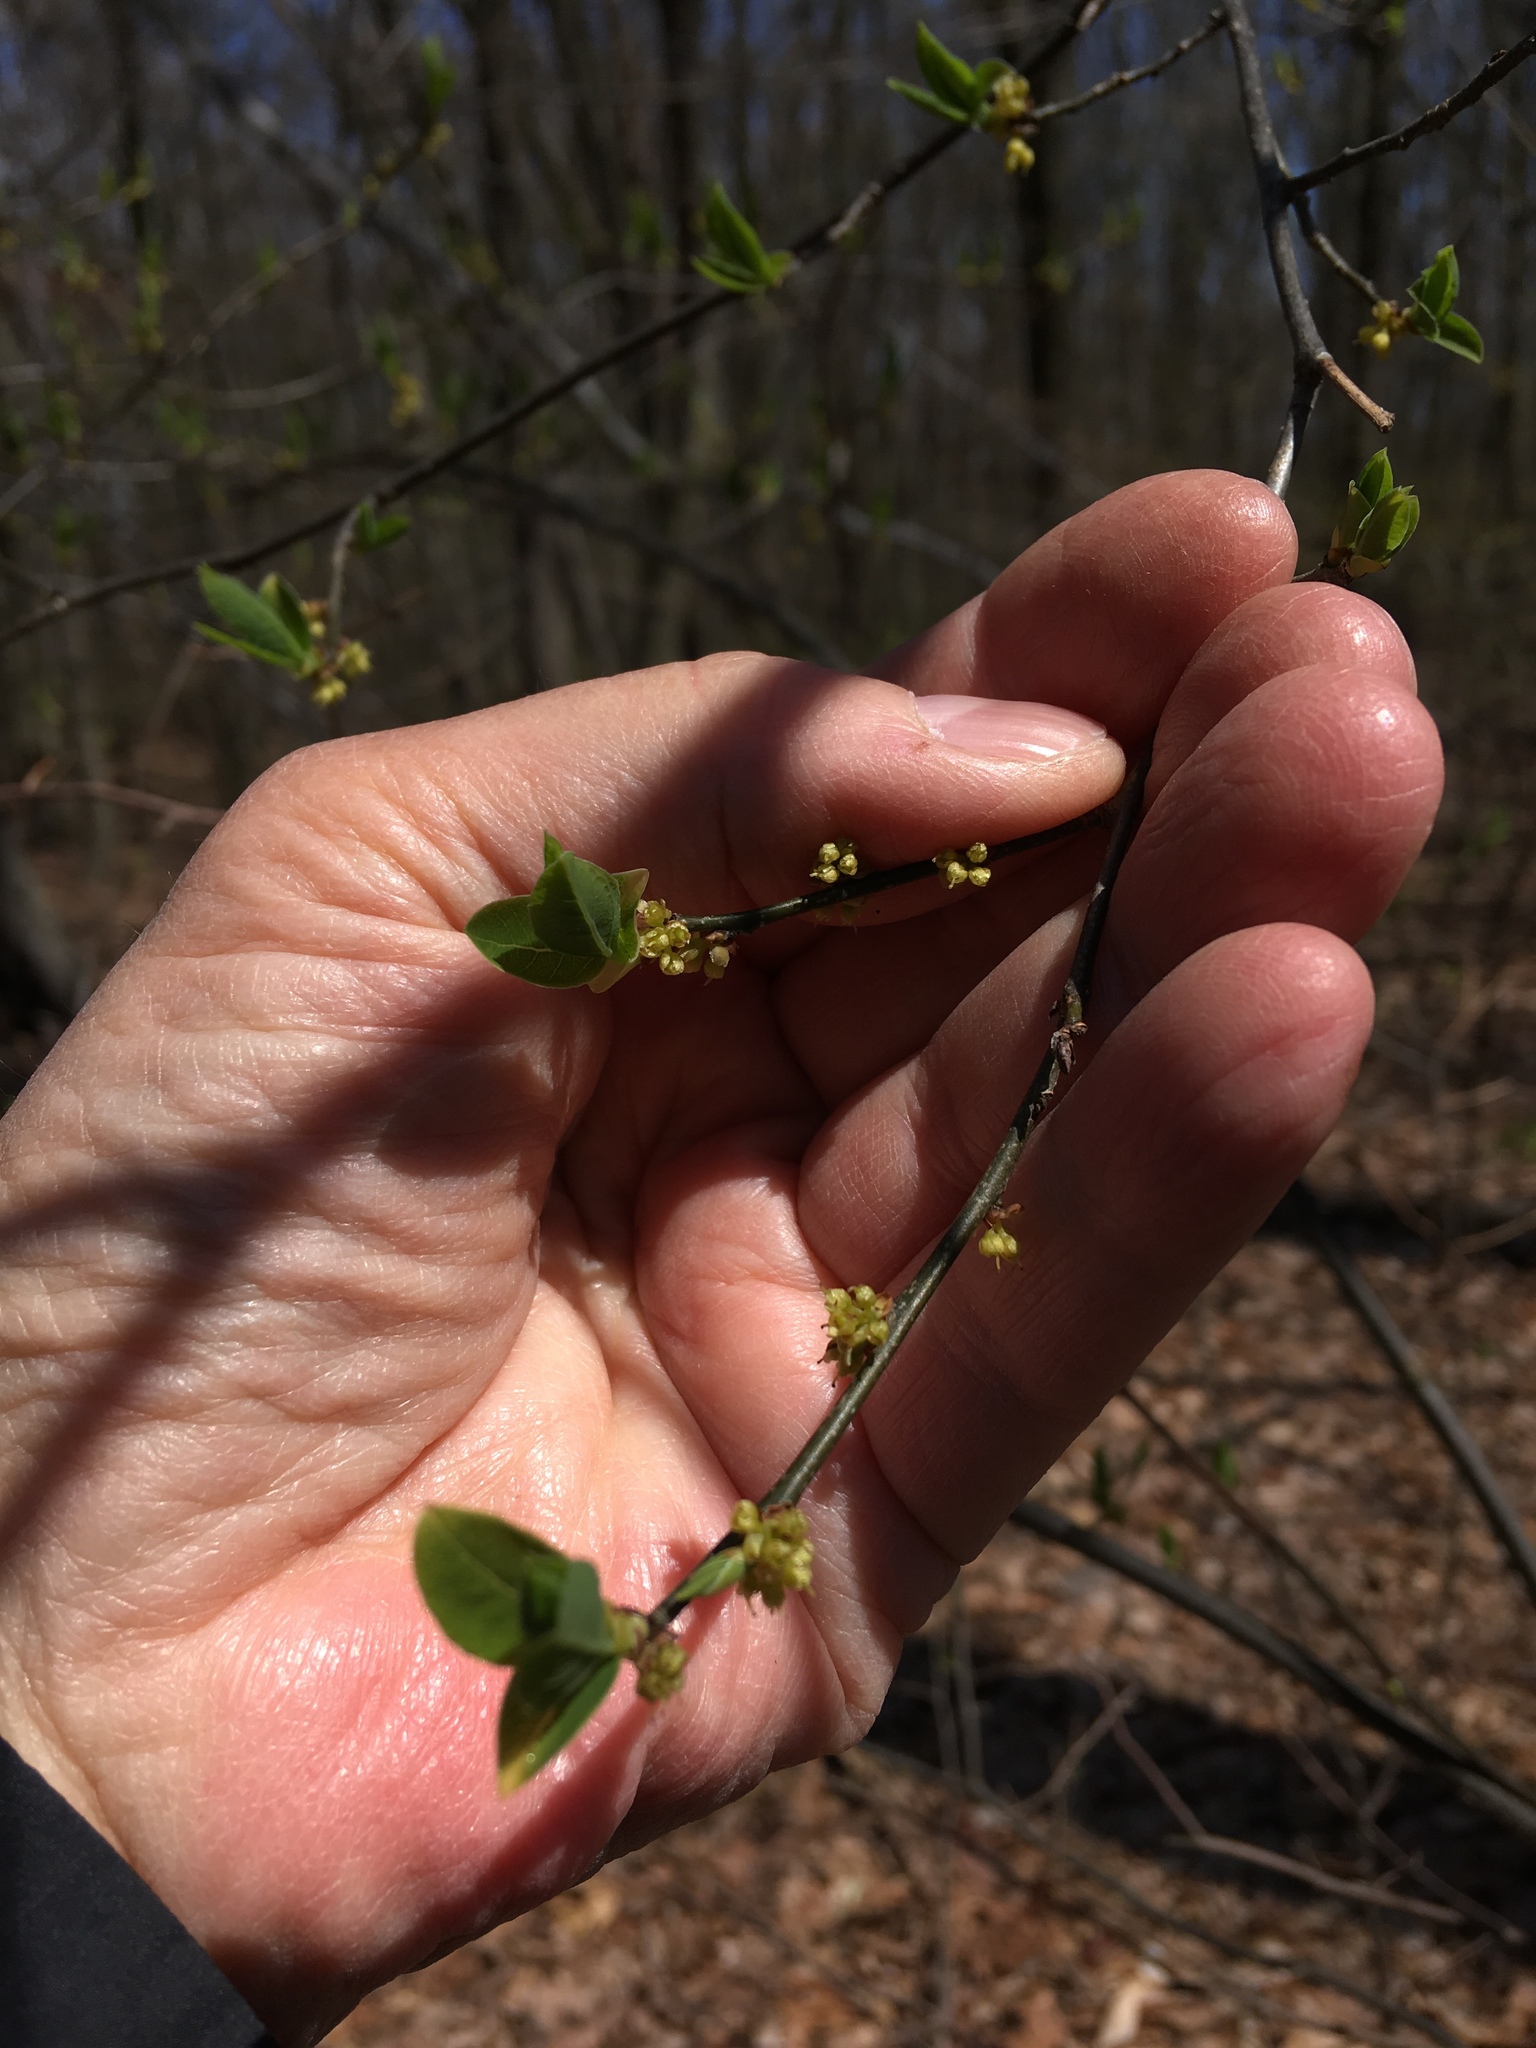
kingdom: Plantae
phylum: Tracheophyta
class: Magnoliopsida
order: Laurales
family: Lauraceae
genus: Lindera
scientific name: Lindera benzoin
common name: Spicebush
